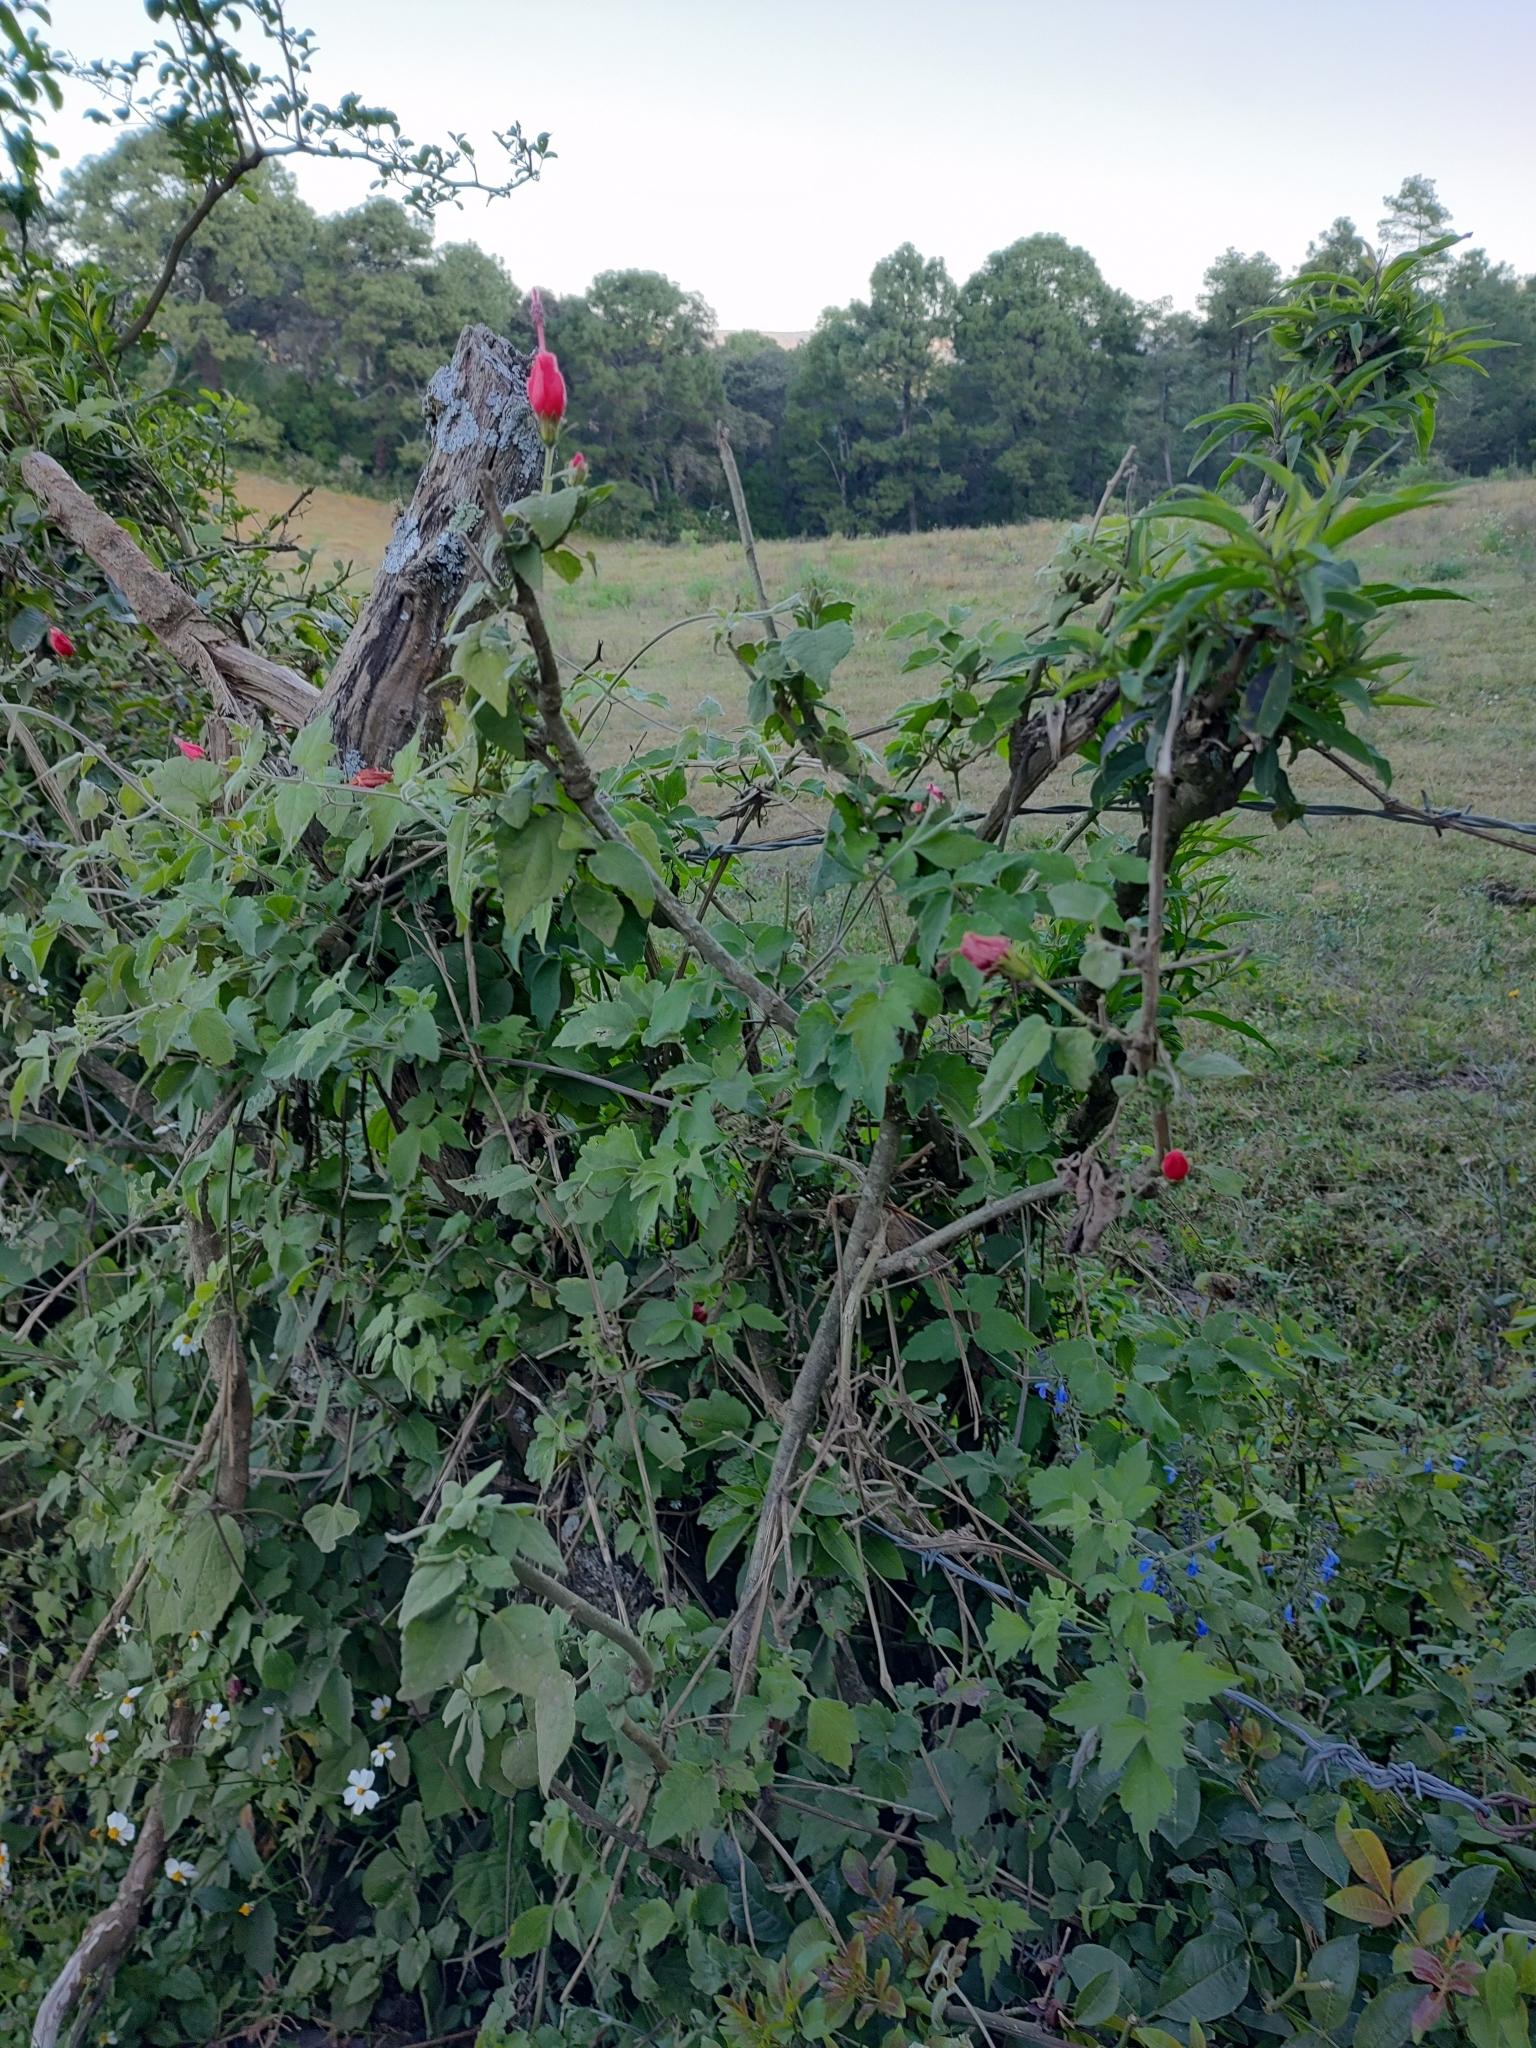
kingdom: Plantae
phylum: Tracheophyta
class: Magnoliopsida
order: Malvales
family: Malvaceae
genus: Malvaviscus
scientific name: Malvaviscus arboreus
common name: Wax mallow
